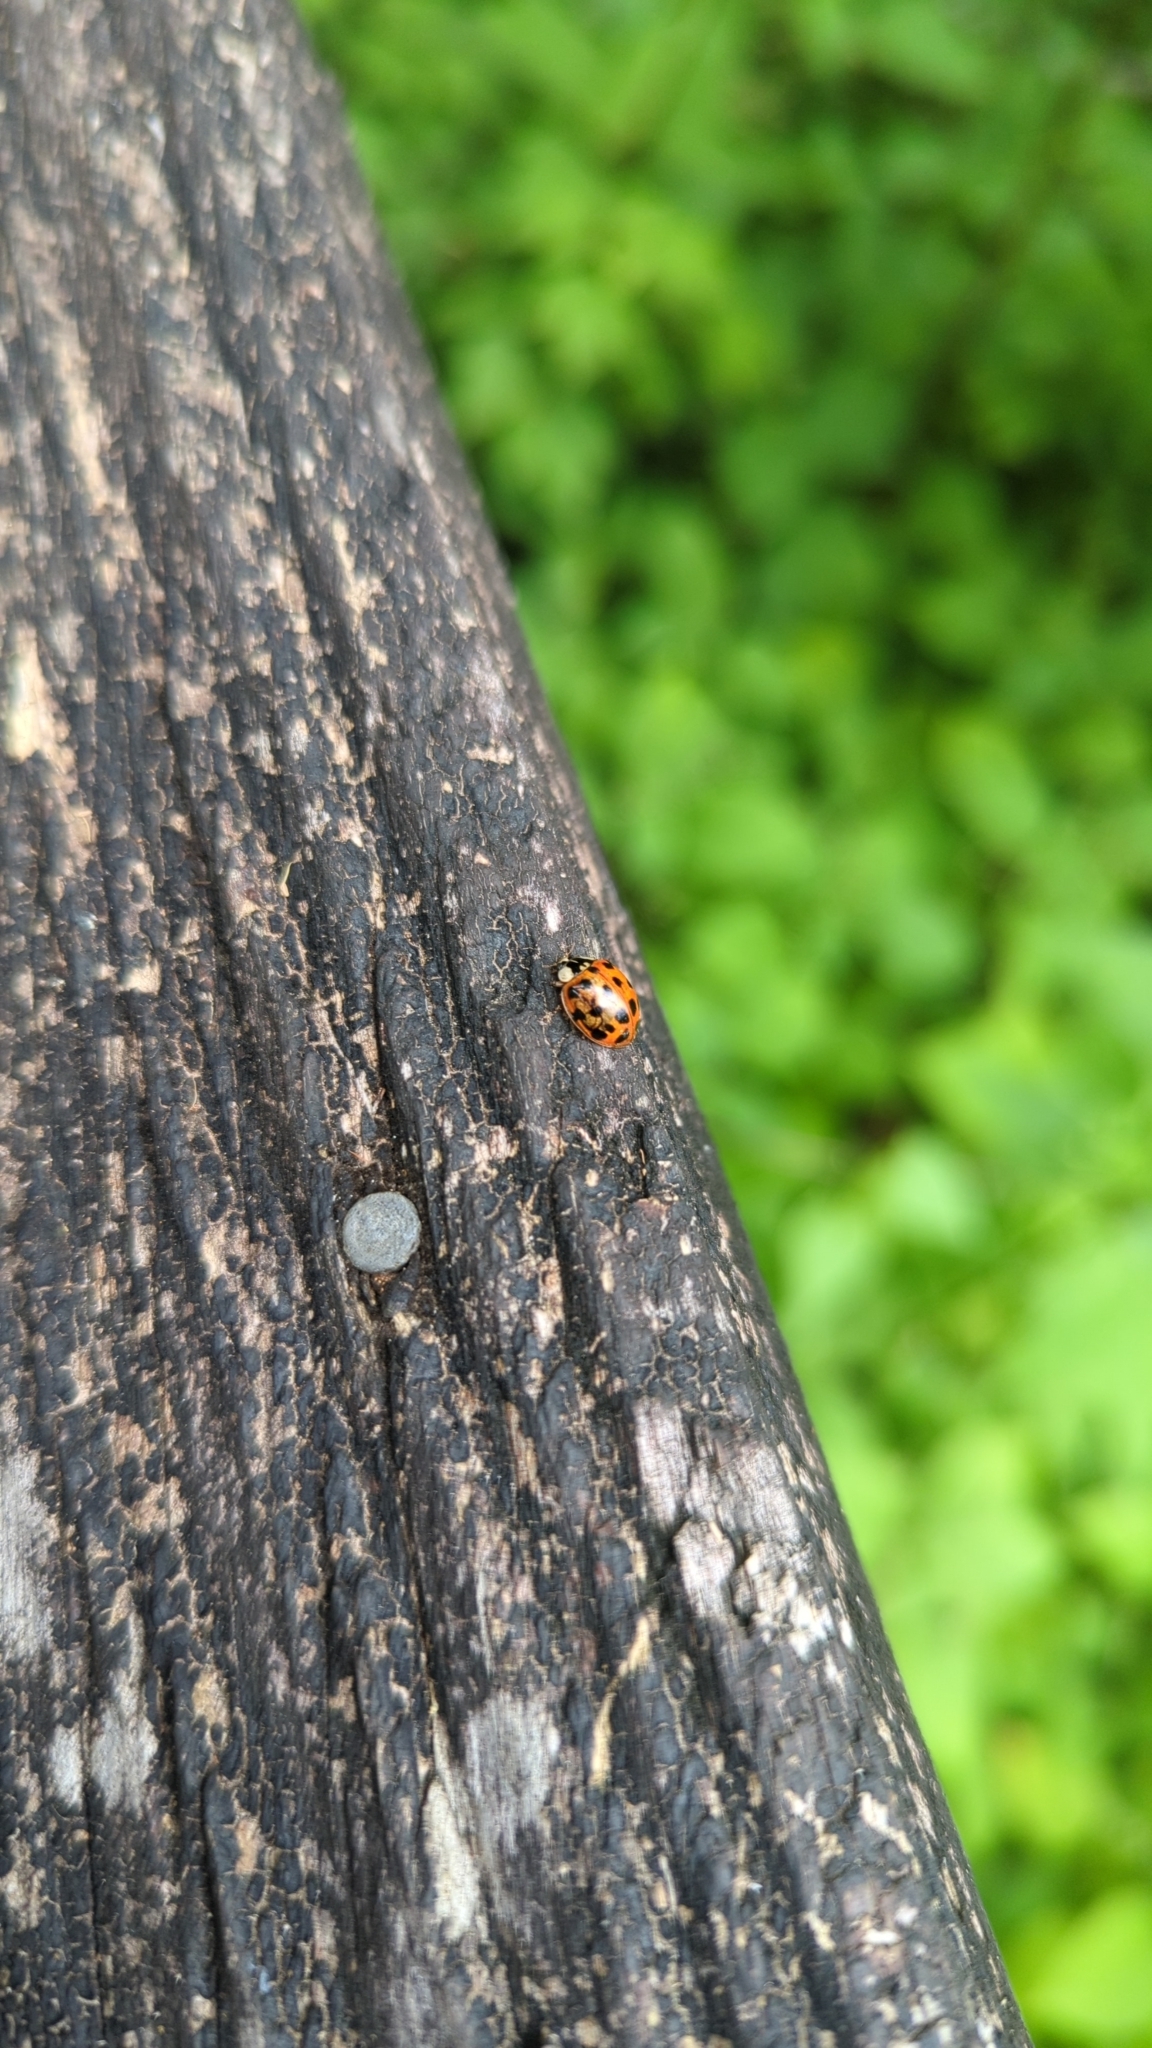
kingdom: Animalia
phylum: Arthropoda
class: Insecta
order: Coleoptera
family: Coccinellidae
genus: Harmonia
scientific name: Harmonia axyridis
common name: Harlequin ladybird
